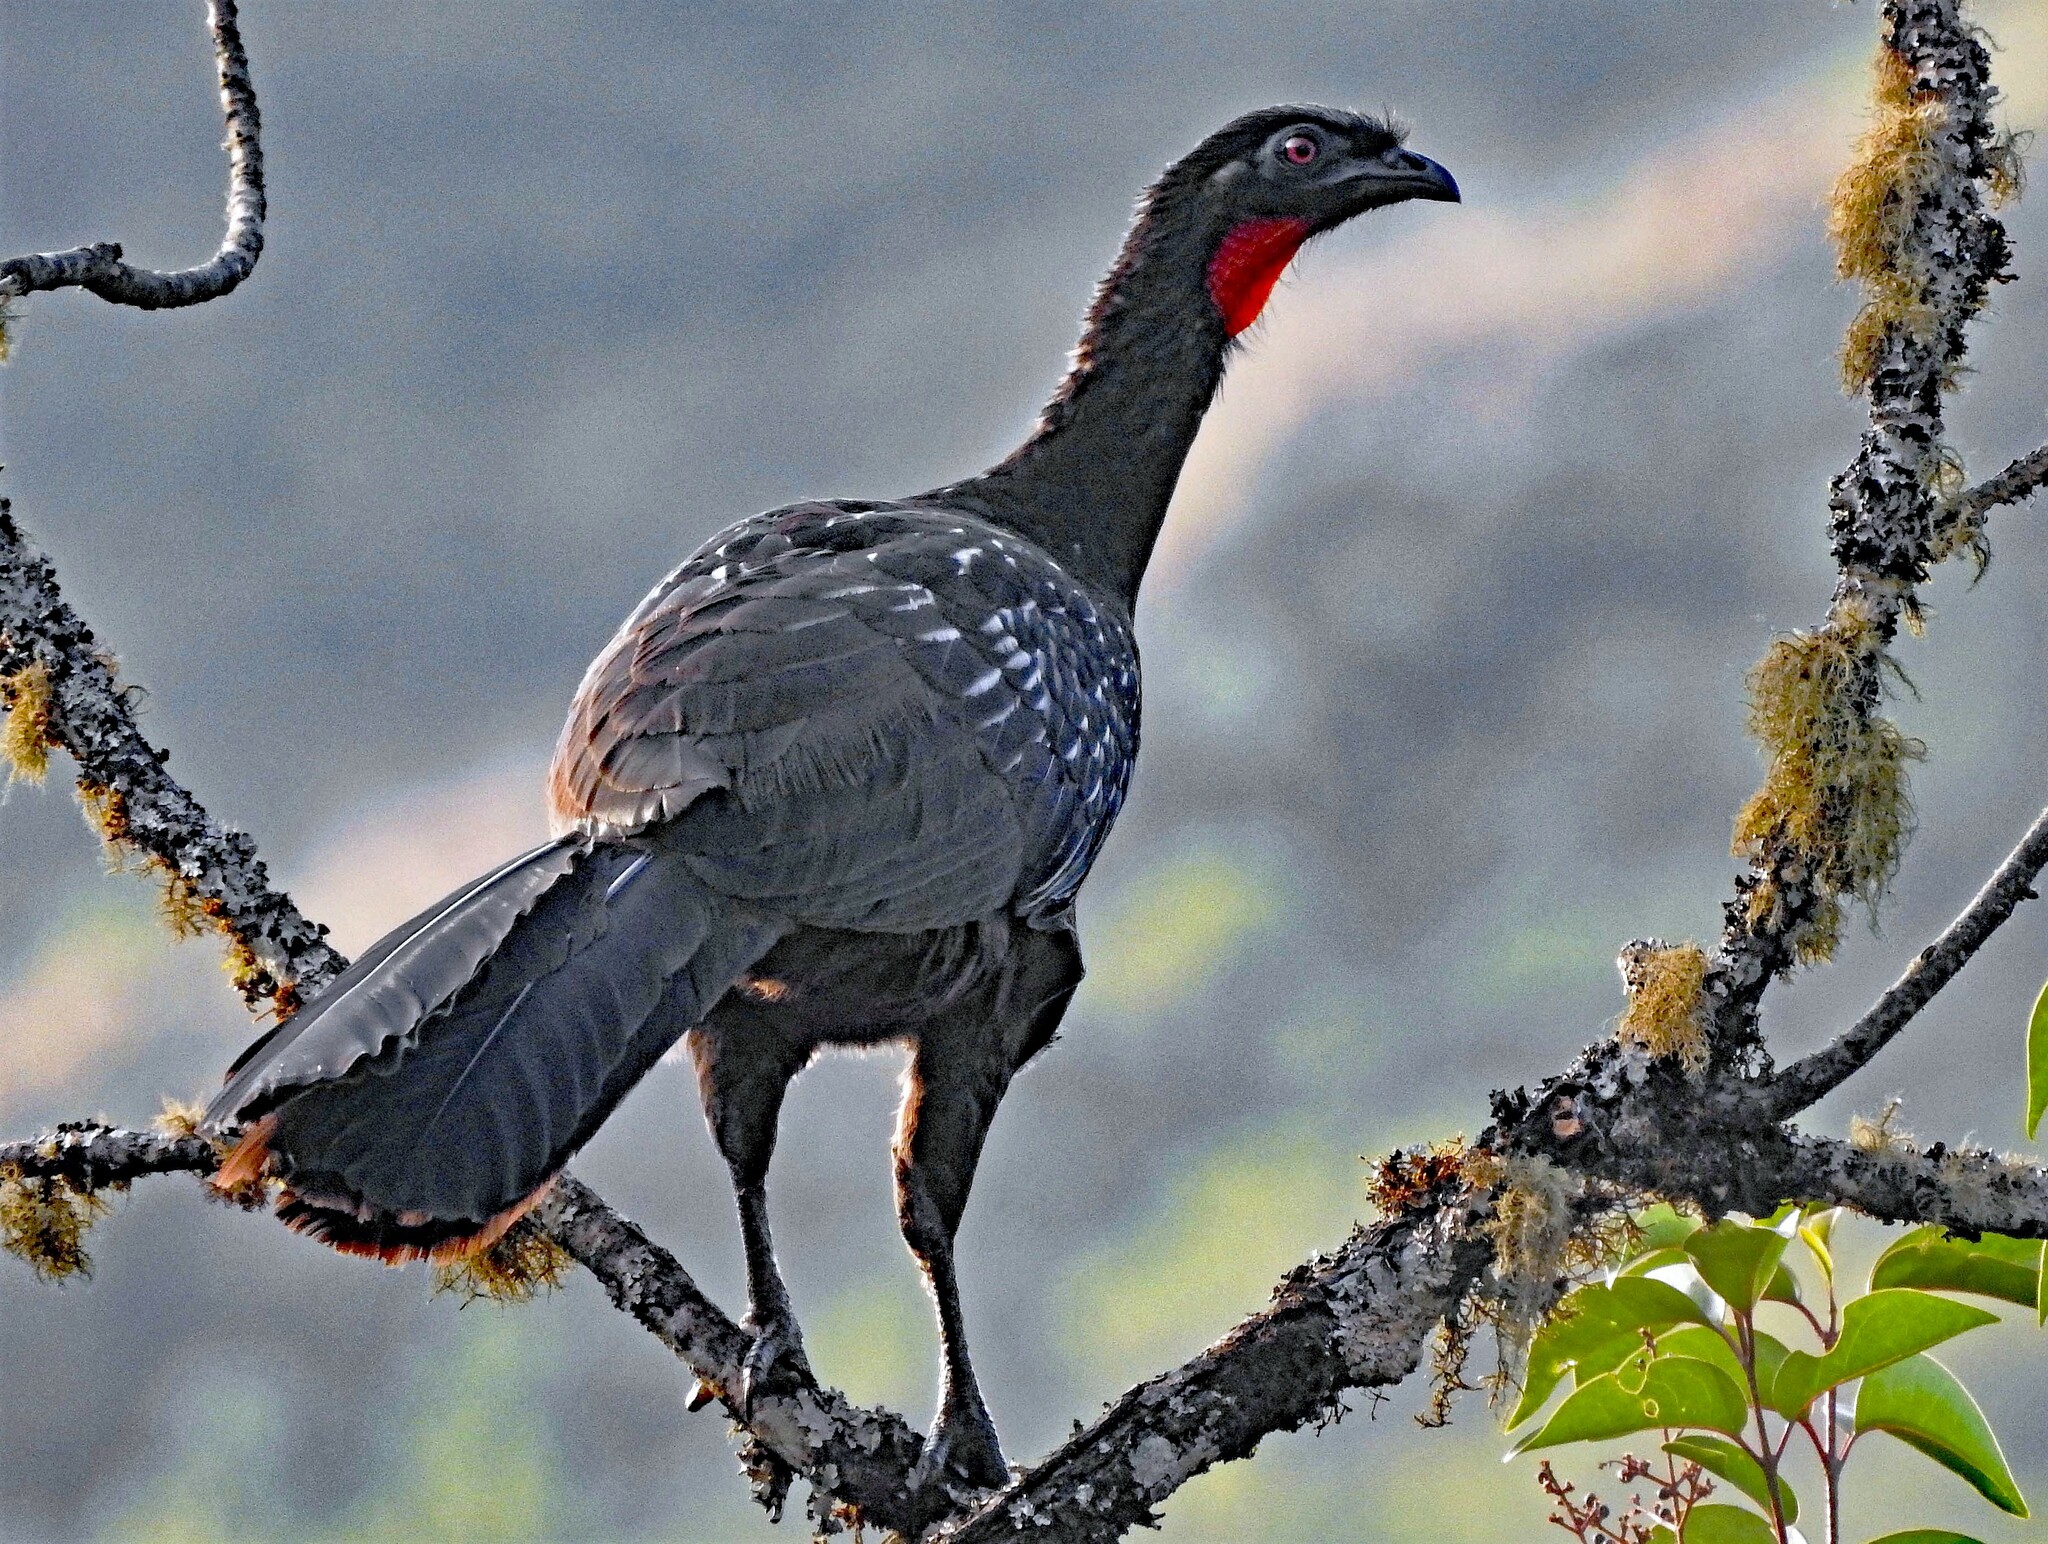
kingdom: Animalia
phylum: Chordata
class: Aves
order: Galliformes
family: Cracidae
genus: Penelope
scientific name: Penelope bridgesi
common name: Yungas guan
